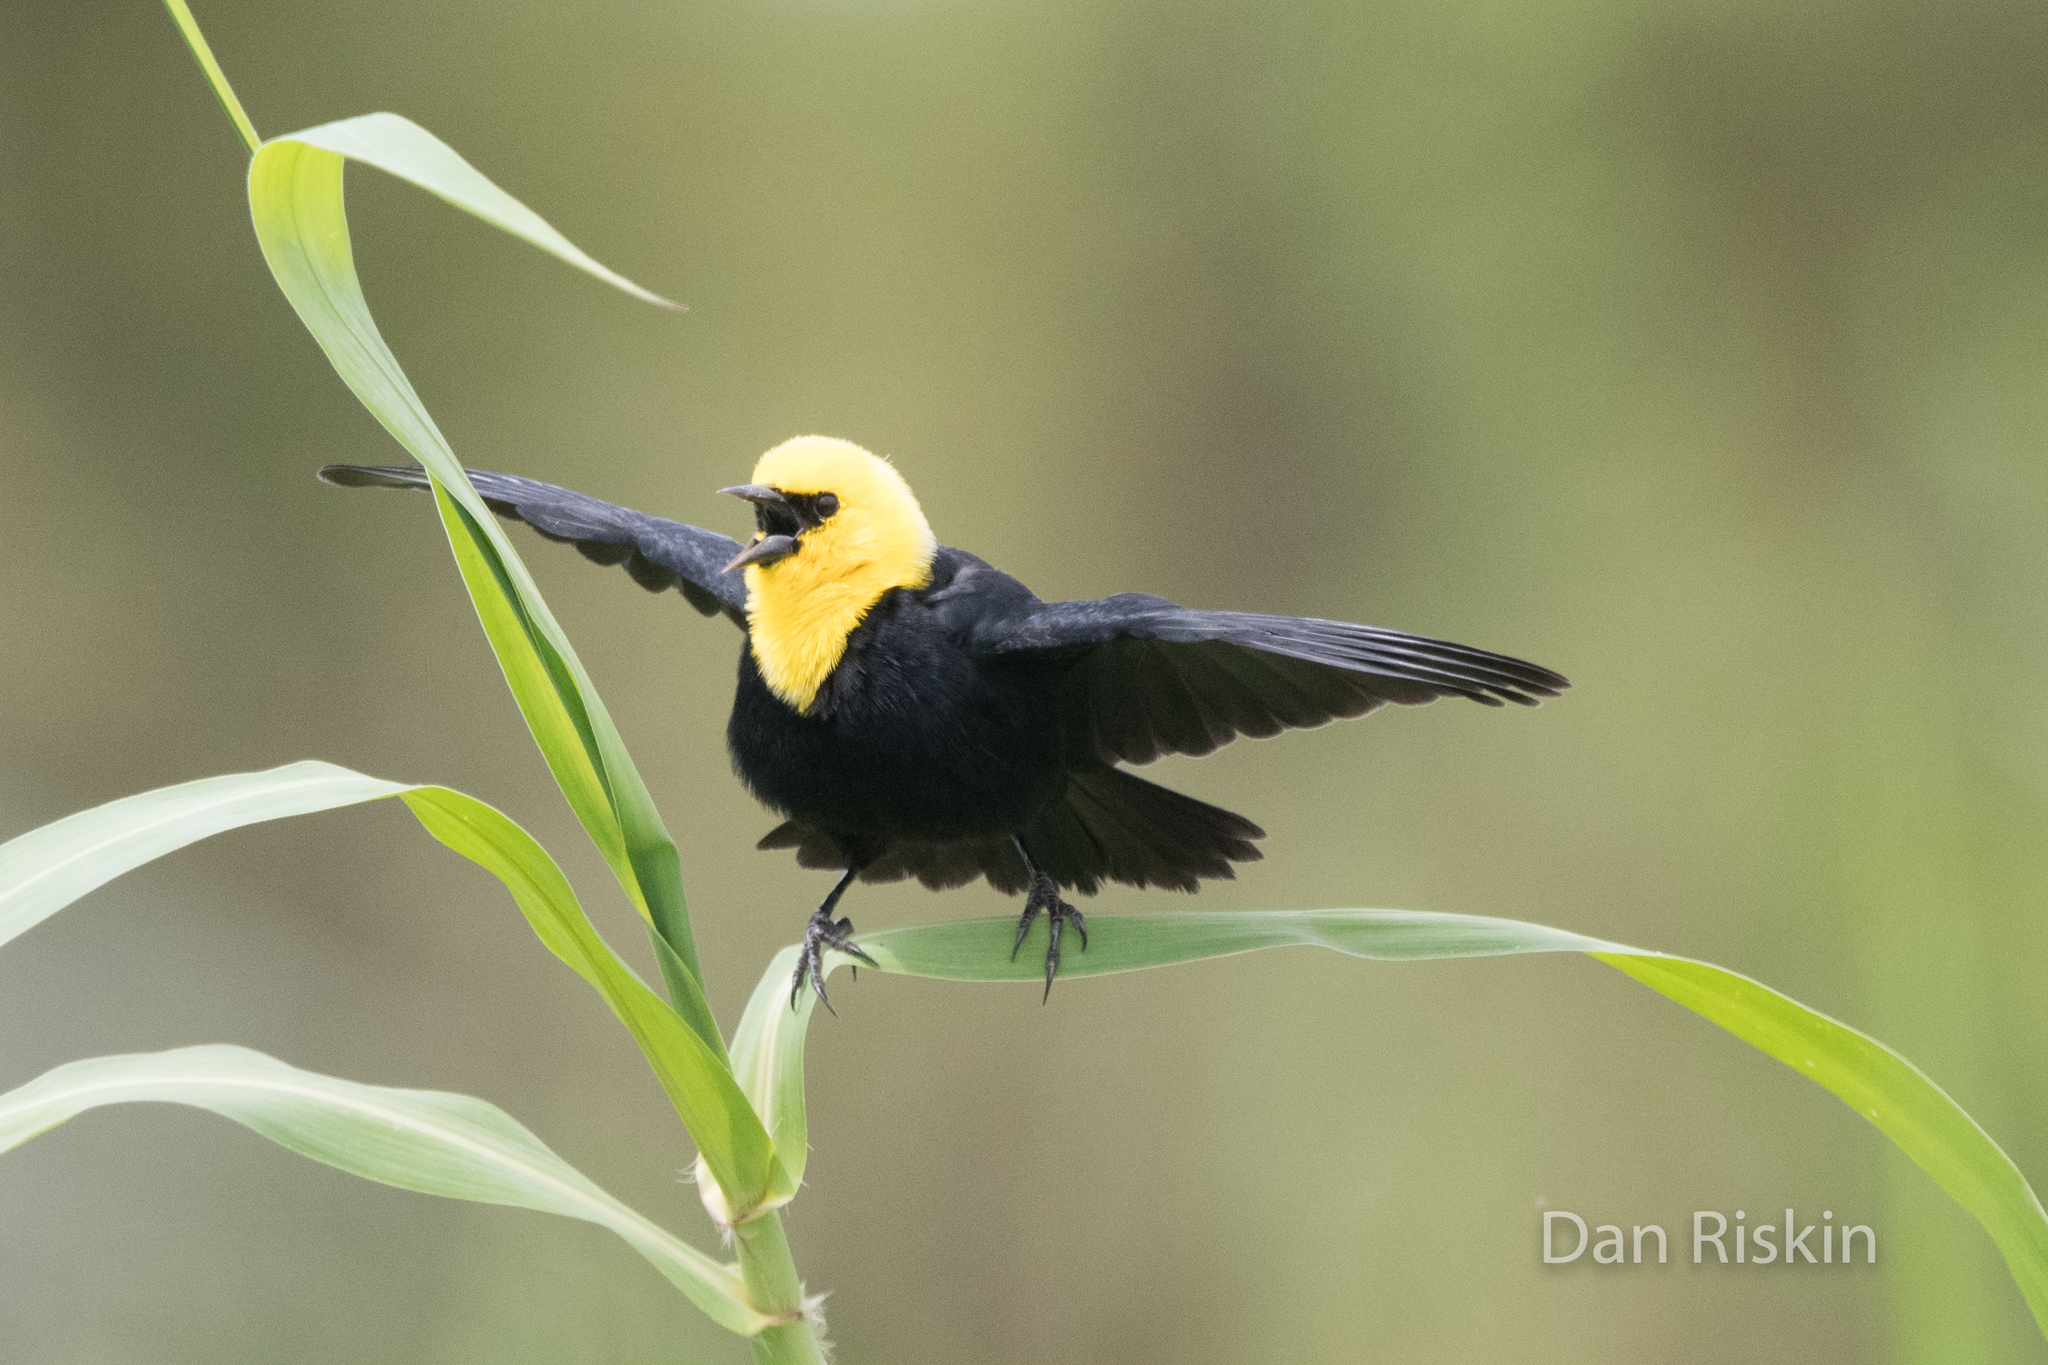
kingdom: Animalia
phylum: Chordata
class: Aves
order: Passeriformes
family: Icteridae
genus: Chrysomus
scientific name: Chrysomus icterocephalus
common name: Yellow-hooded blackbird
